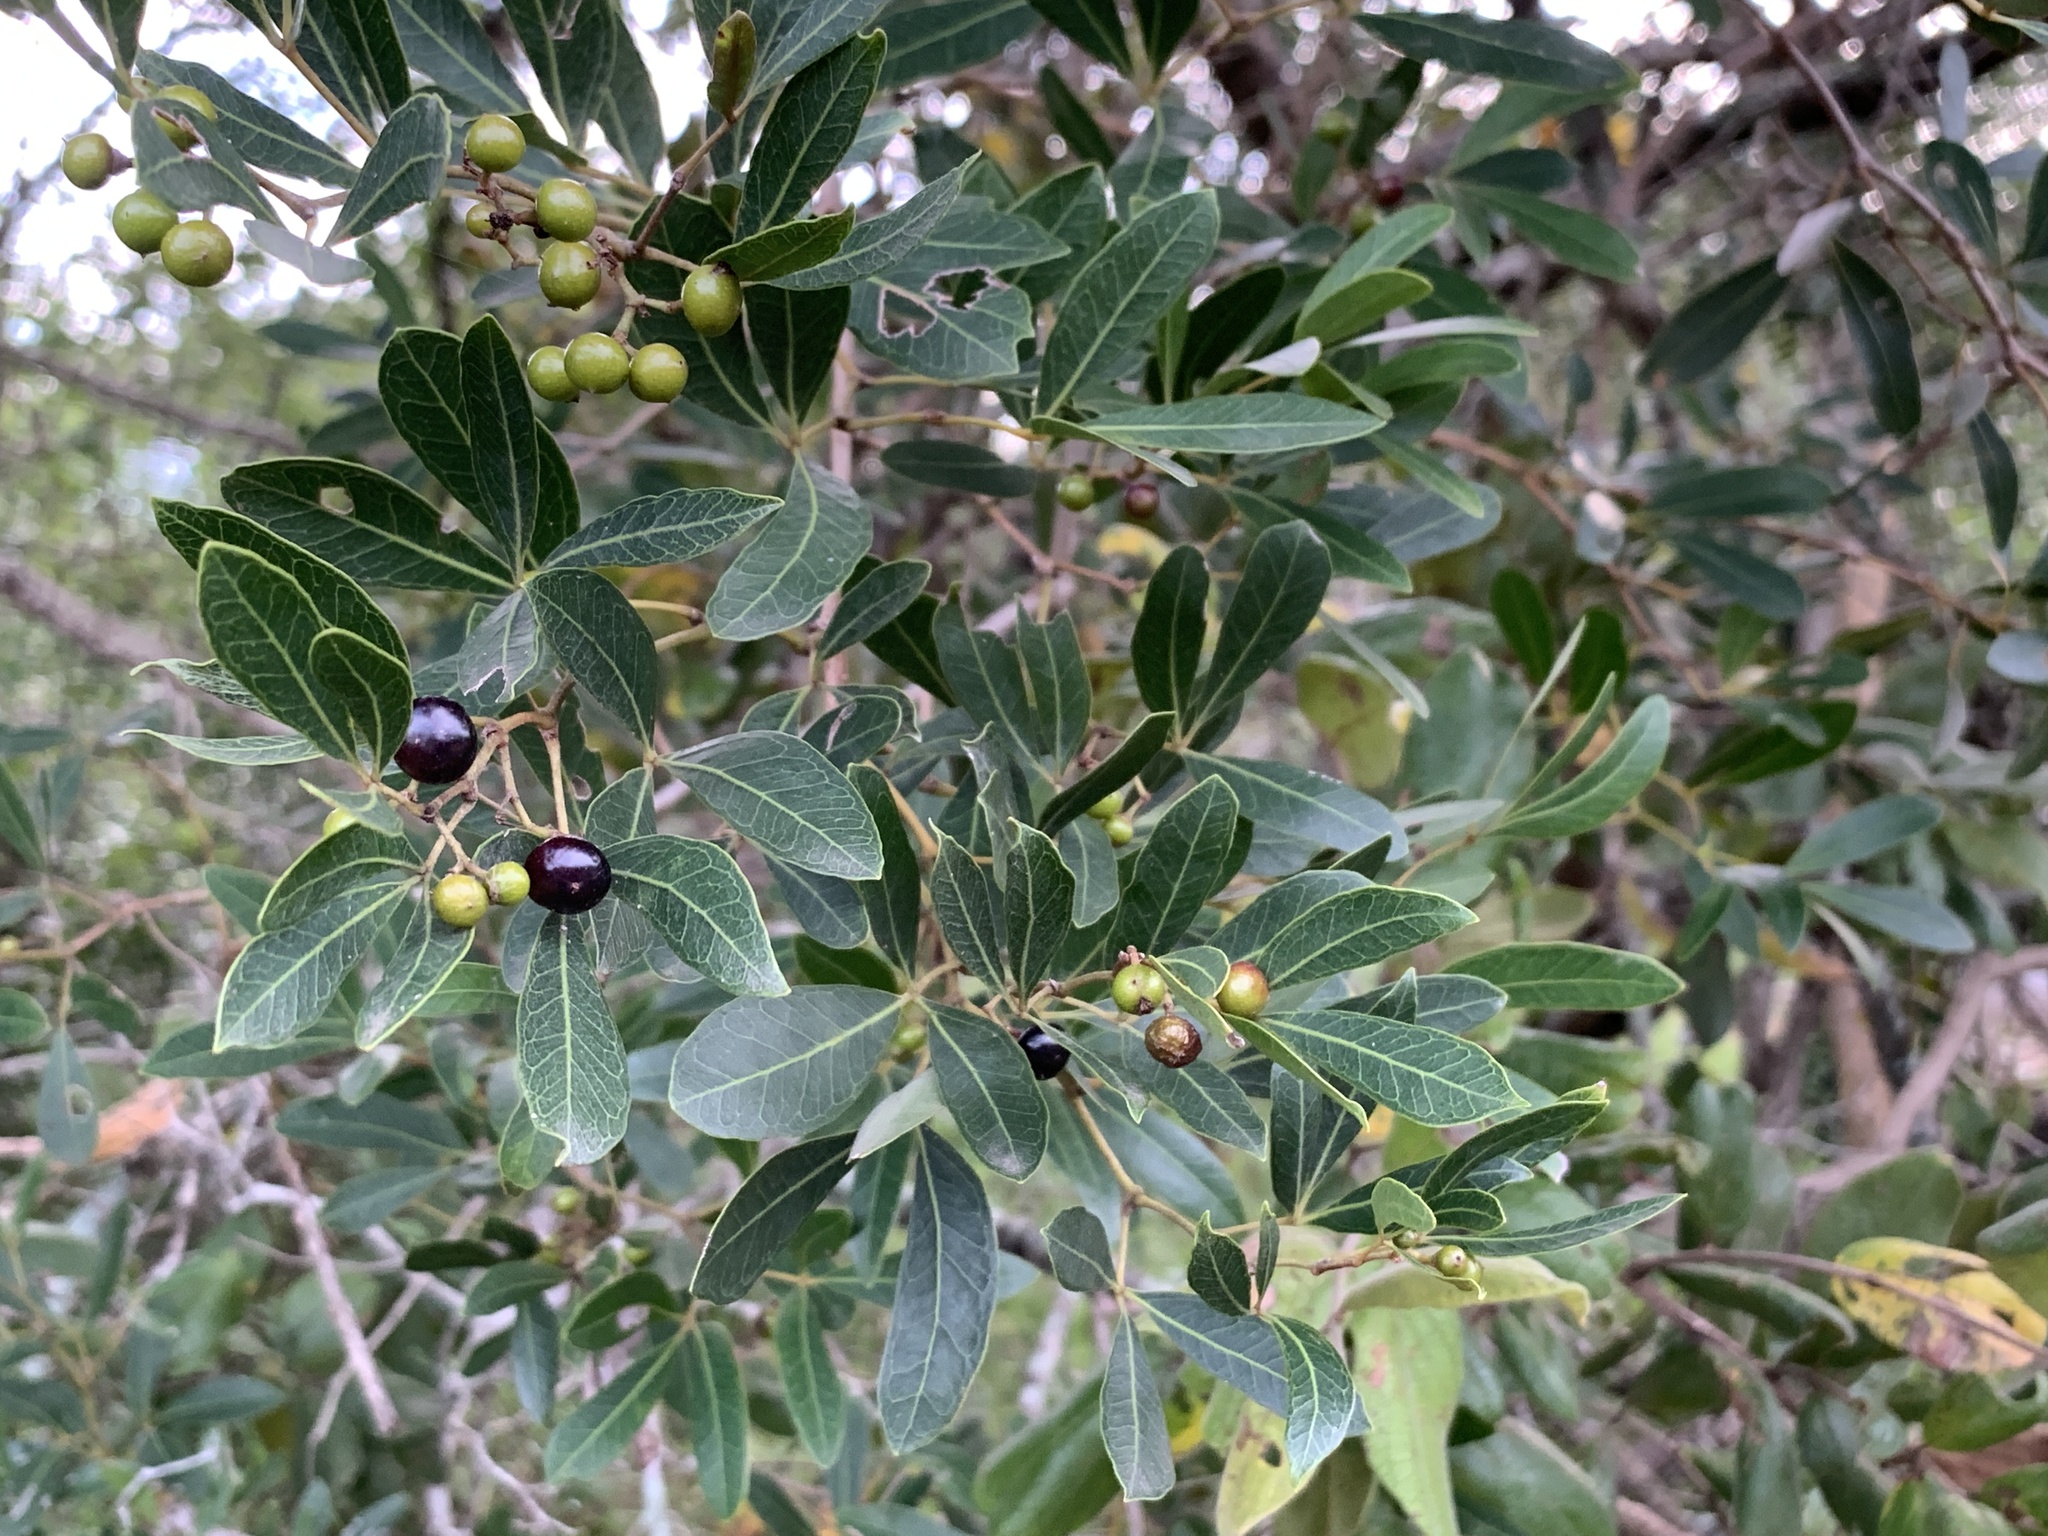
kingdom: Plantae
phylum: Tracheophyta
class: Magnoliopsida
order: Vitales
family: Vitaceae
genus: Rhoicissus
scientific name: Rhoicissus digitata
